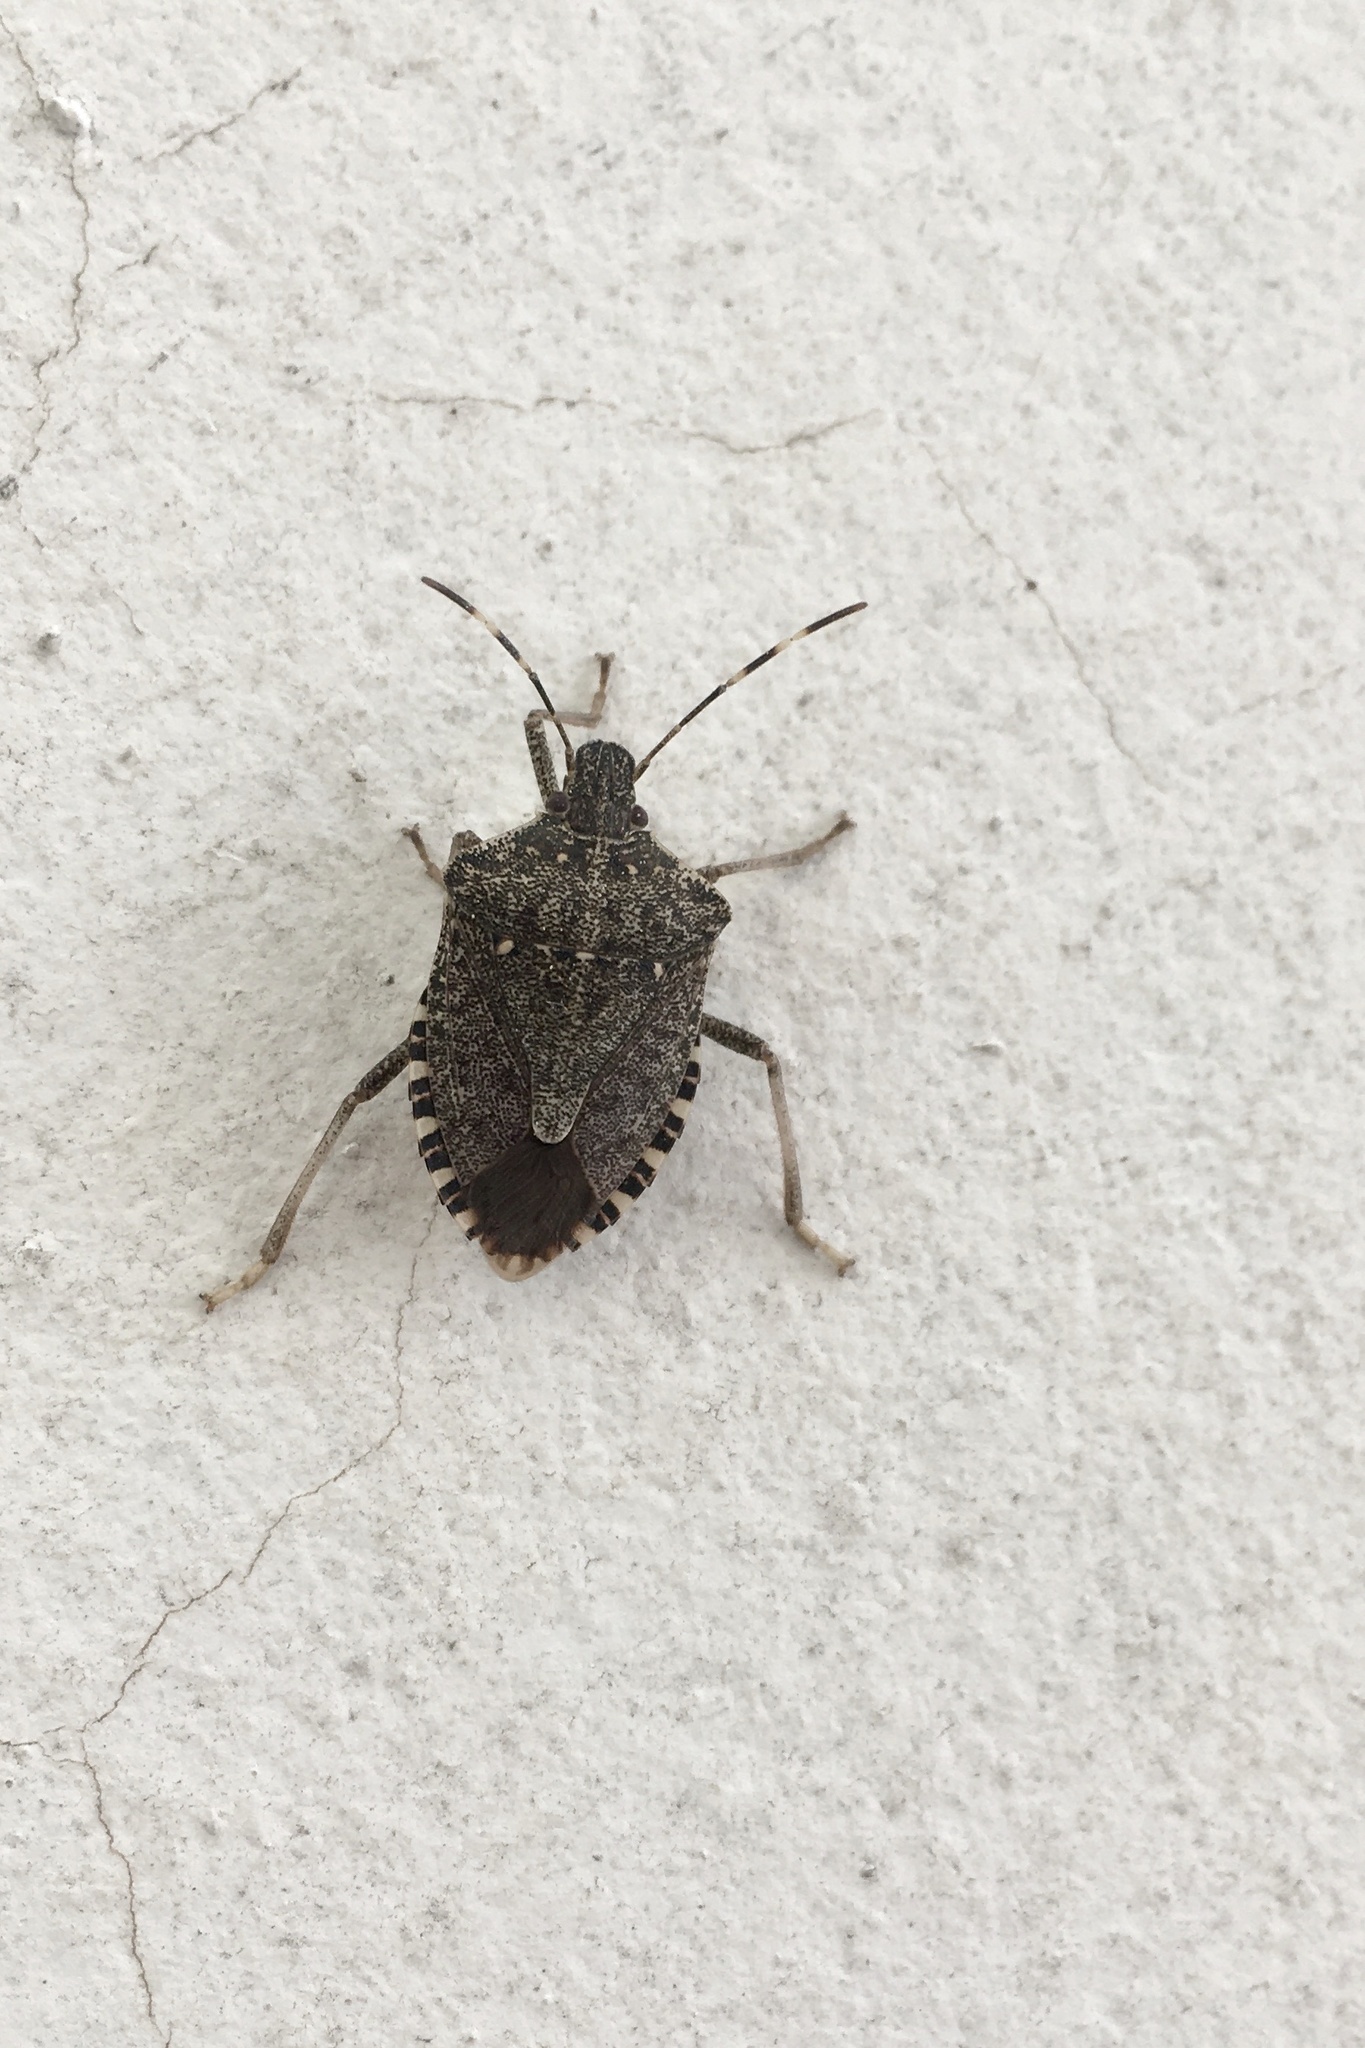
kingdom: Animalia
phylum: Arthropoda
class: Insecta
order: Hemiptera
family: Pentatomidae
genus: Halyomorpha
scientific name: Halyomorpha halys
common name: Brown marmorated stink bug
